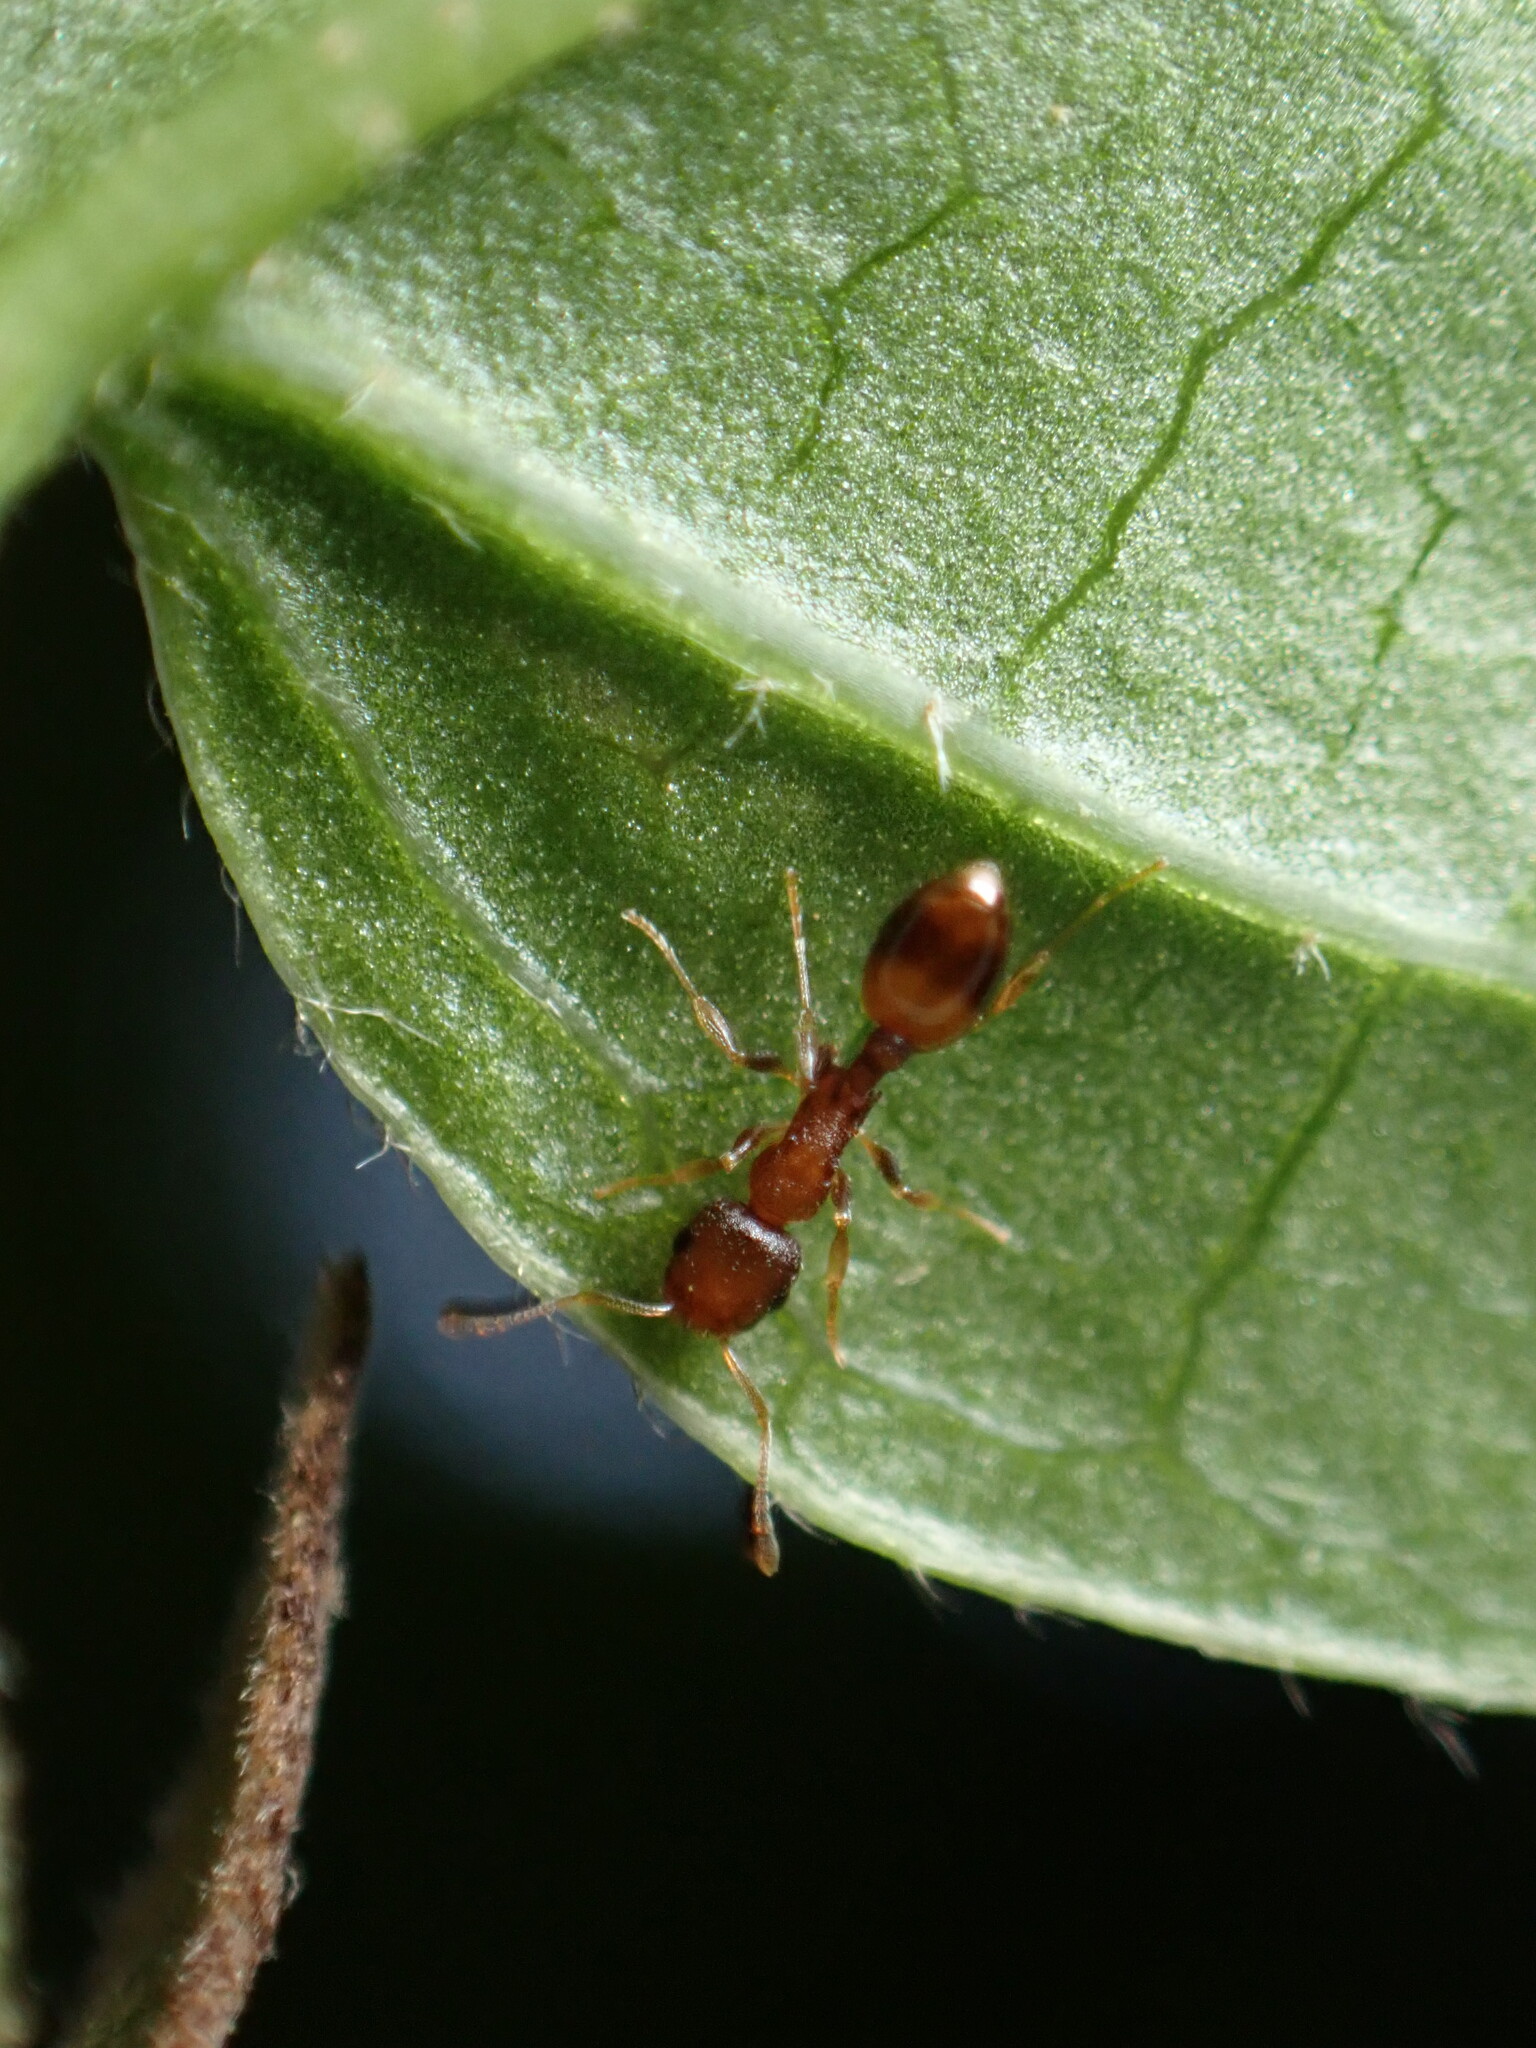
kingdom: Animalia
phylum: Arthropoda
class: Insecta
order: Hymenoptera
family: Formicidae
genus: Temnothorax
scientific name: Temnothorax curvispinosus
